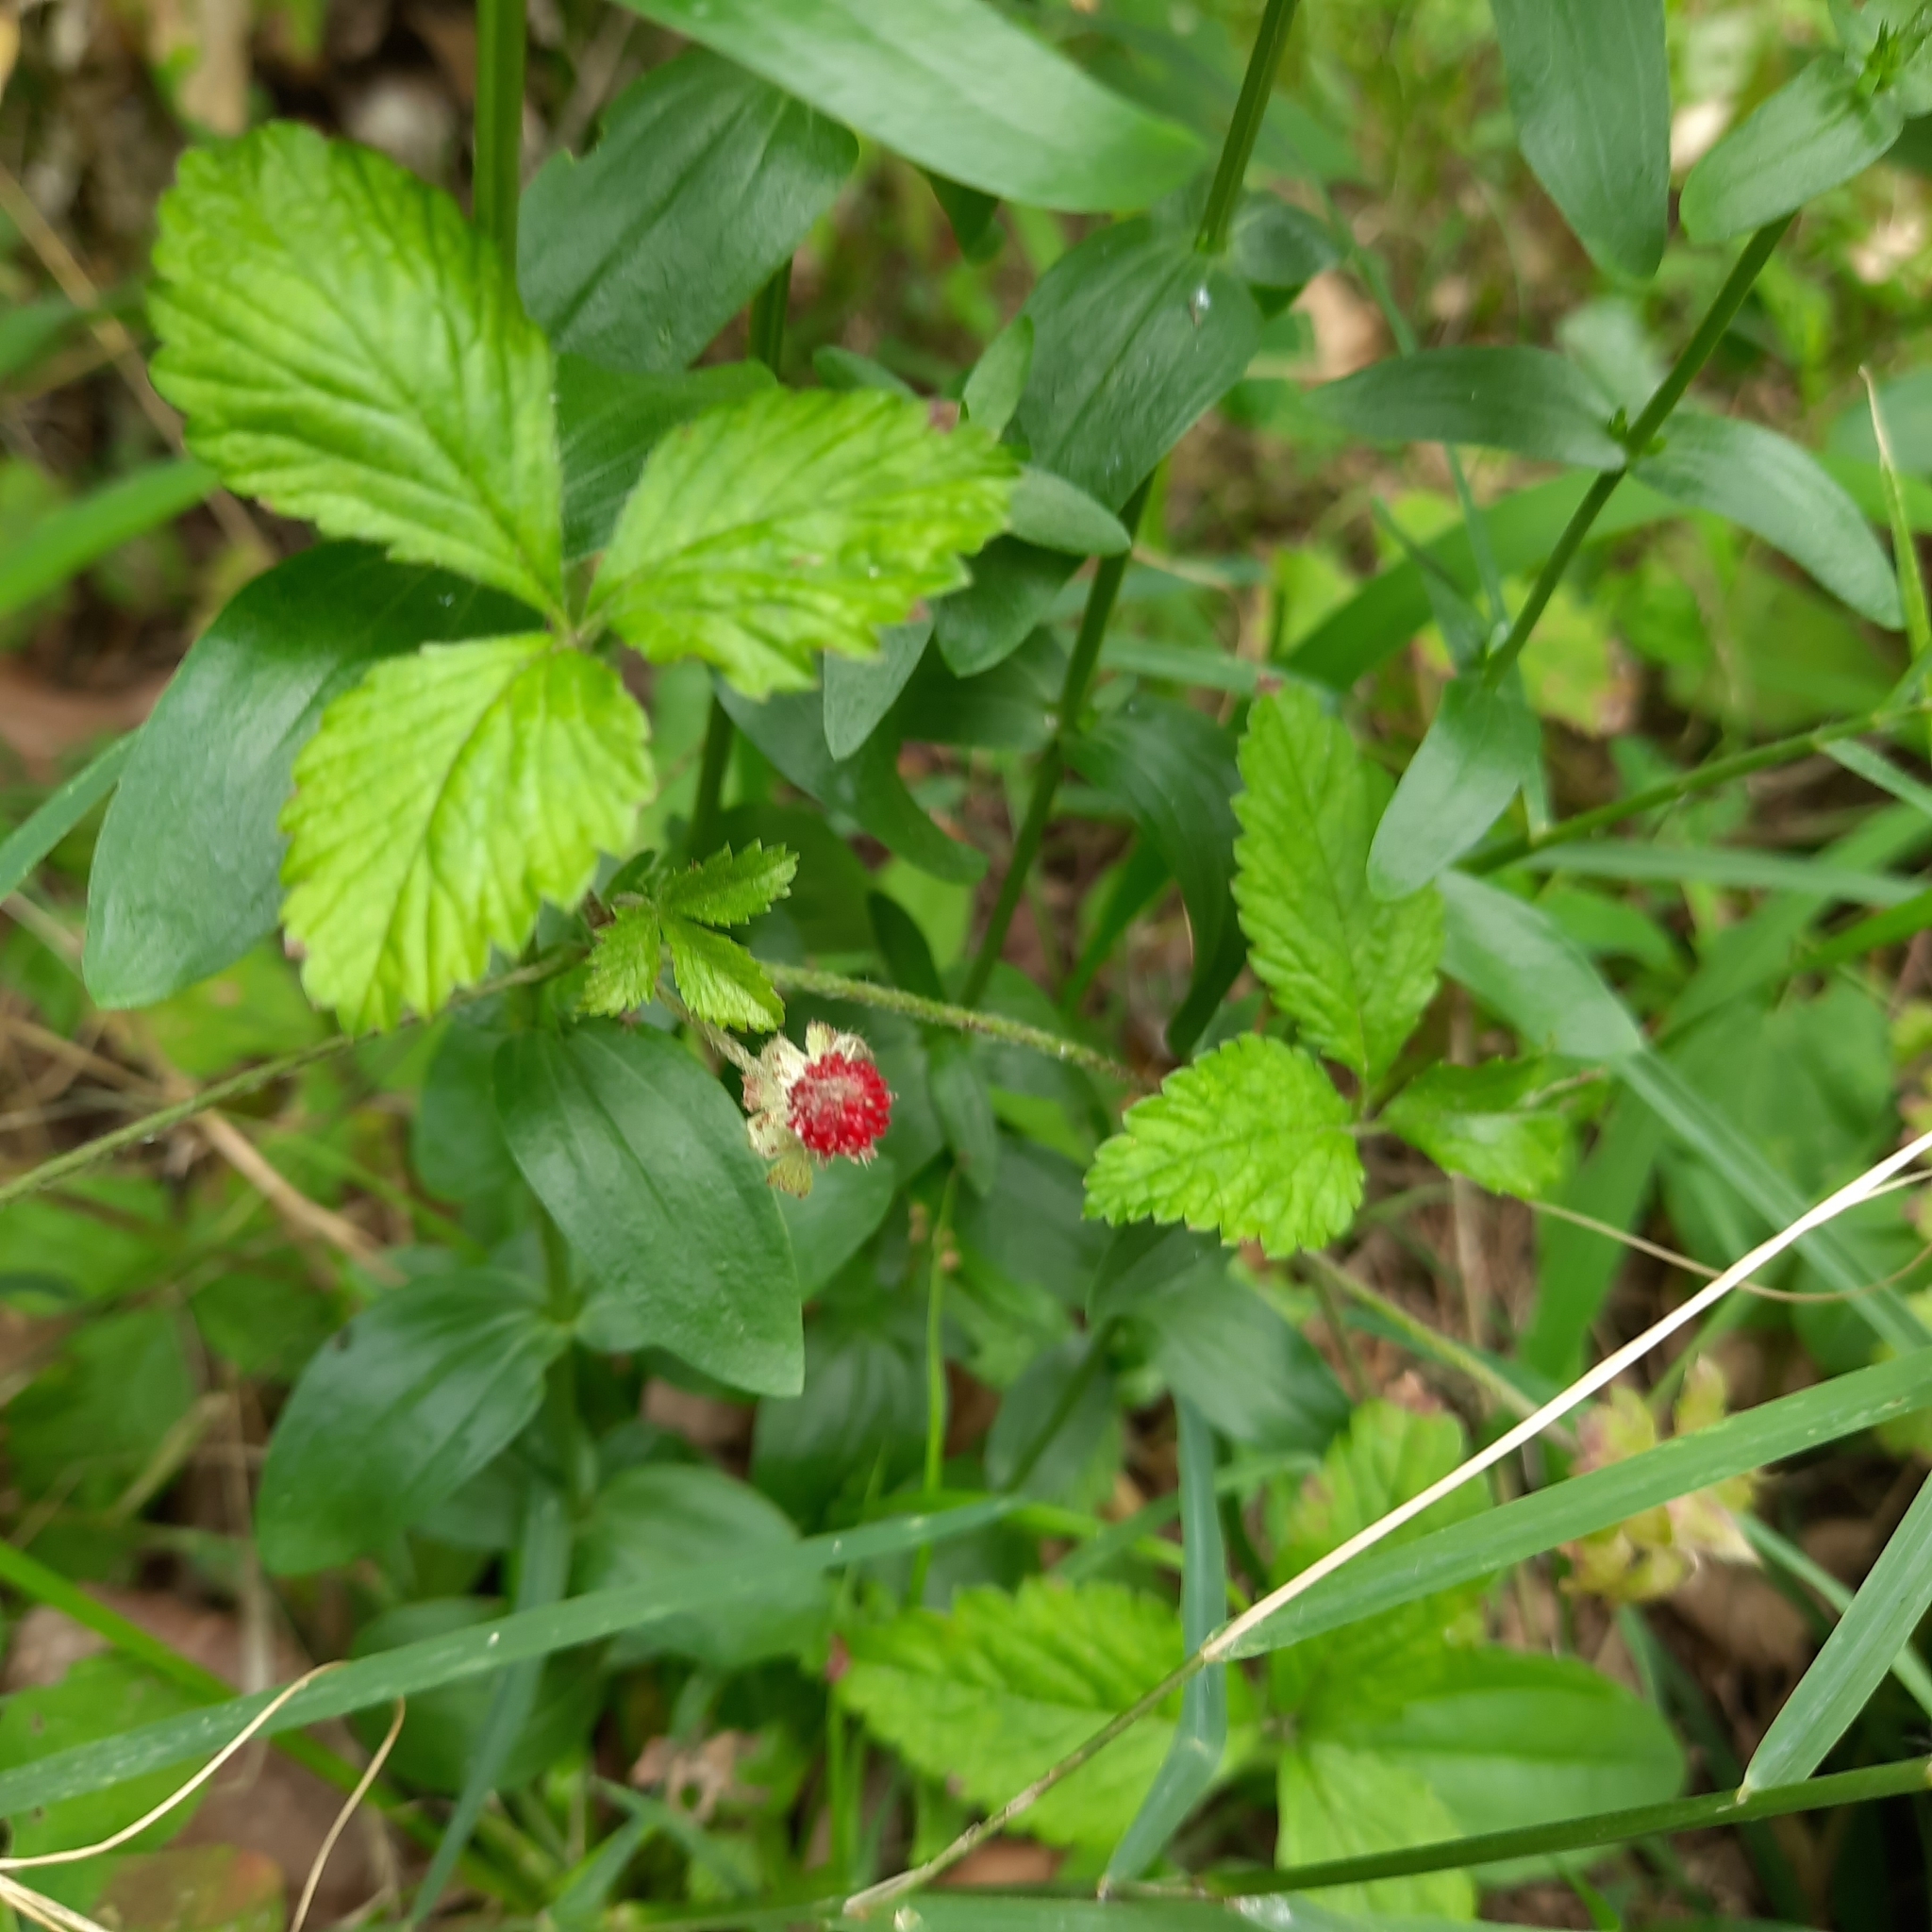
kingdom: Plantae
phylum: Tracheophyta
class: Magnoliopsida
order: Rosales
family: Rosaceae
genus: Potentilla
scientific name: Potentilla indica
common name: Yellow-flowered strawberry
